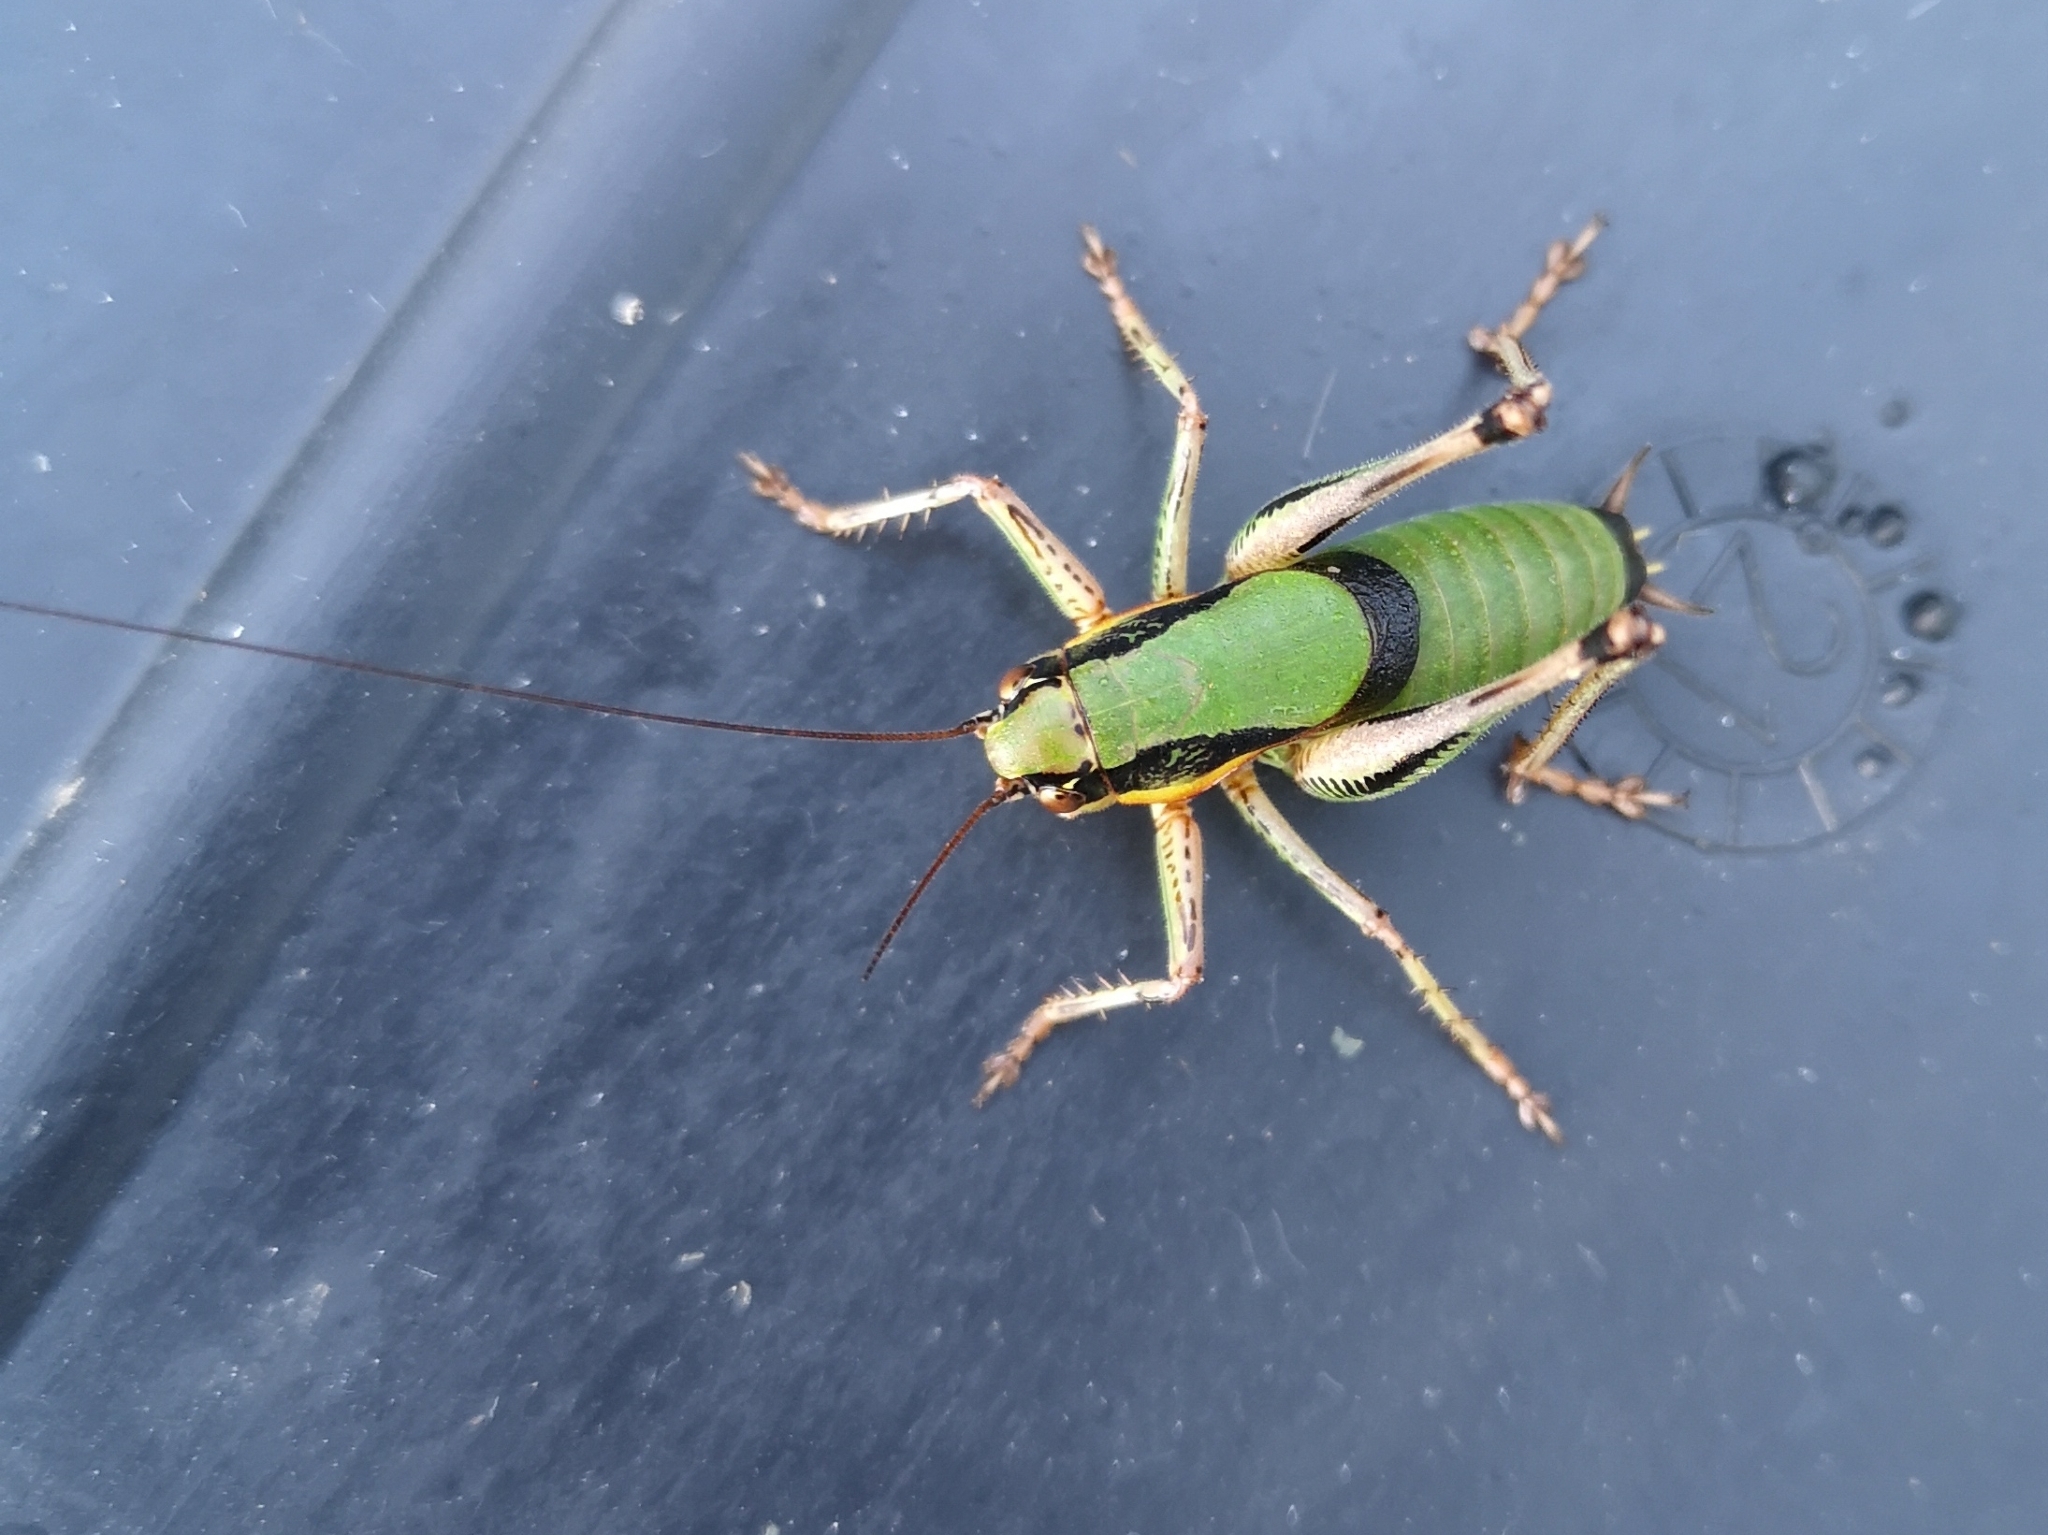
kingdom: Animalia
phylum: Arthropoda
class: Insecta
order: Orthoptera
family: Tettigoniidae
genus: Eupholidoptera
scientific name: Eupholidoptera schmidti
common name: Schmidt's marbled bush-cricket
